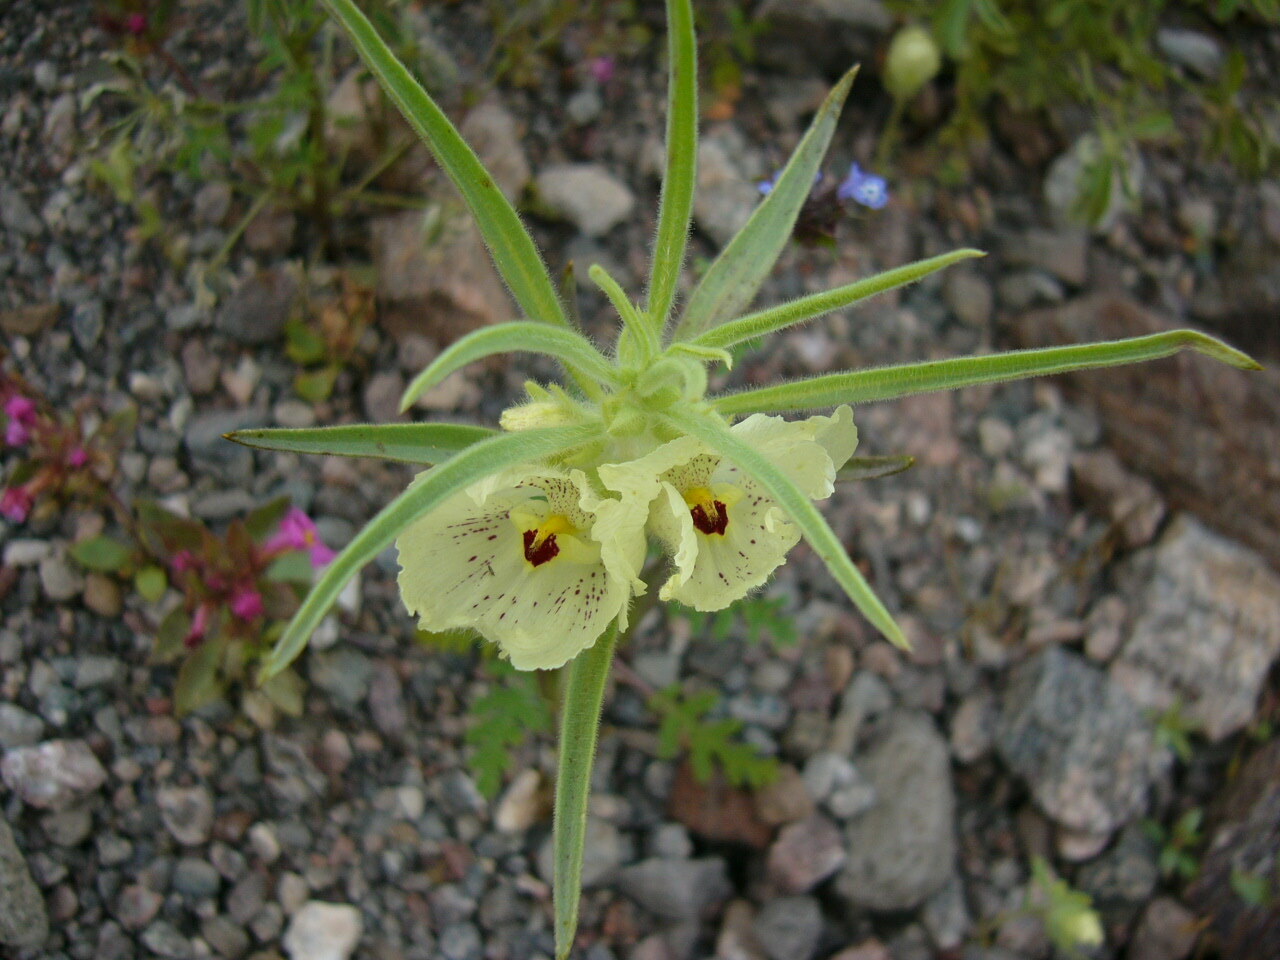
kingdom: Plantae
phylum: Tracheophyta
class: Magnoliopsida
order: Lamiales
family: Plantaginaceae
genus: Mohavea
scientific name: Mohavea confertiflora
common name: Ghost flower
